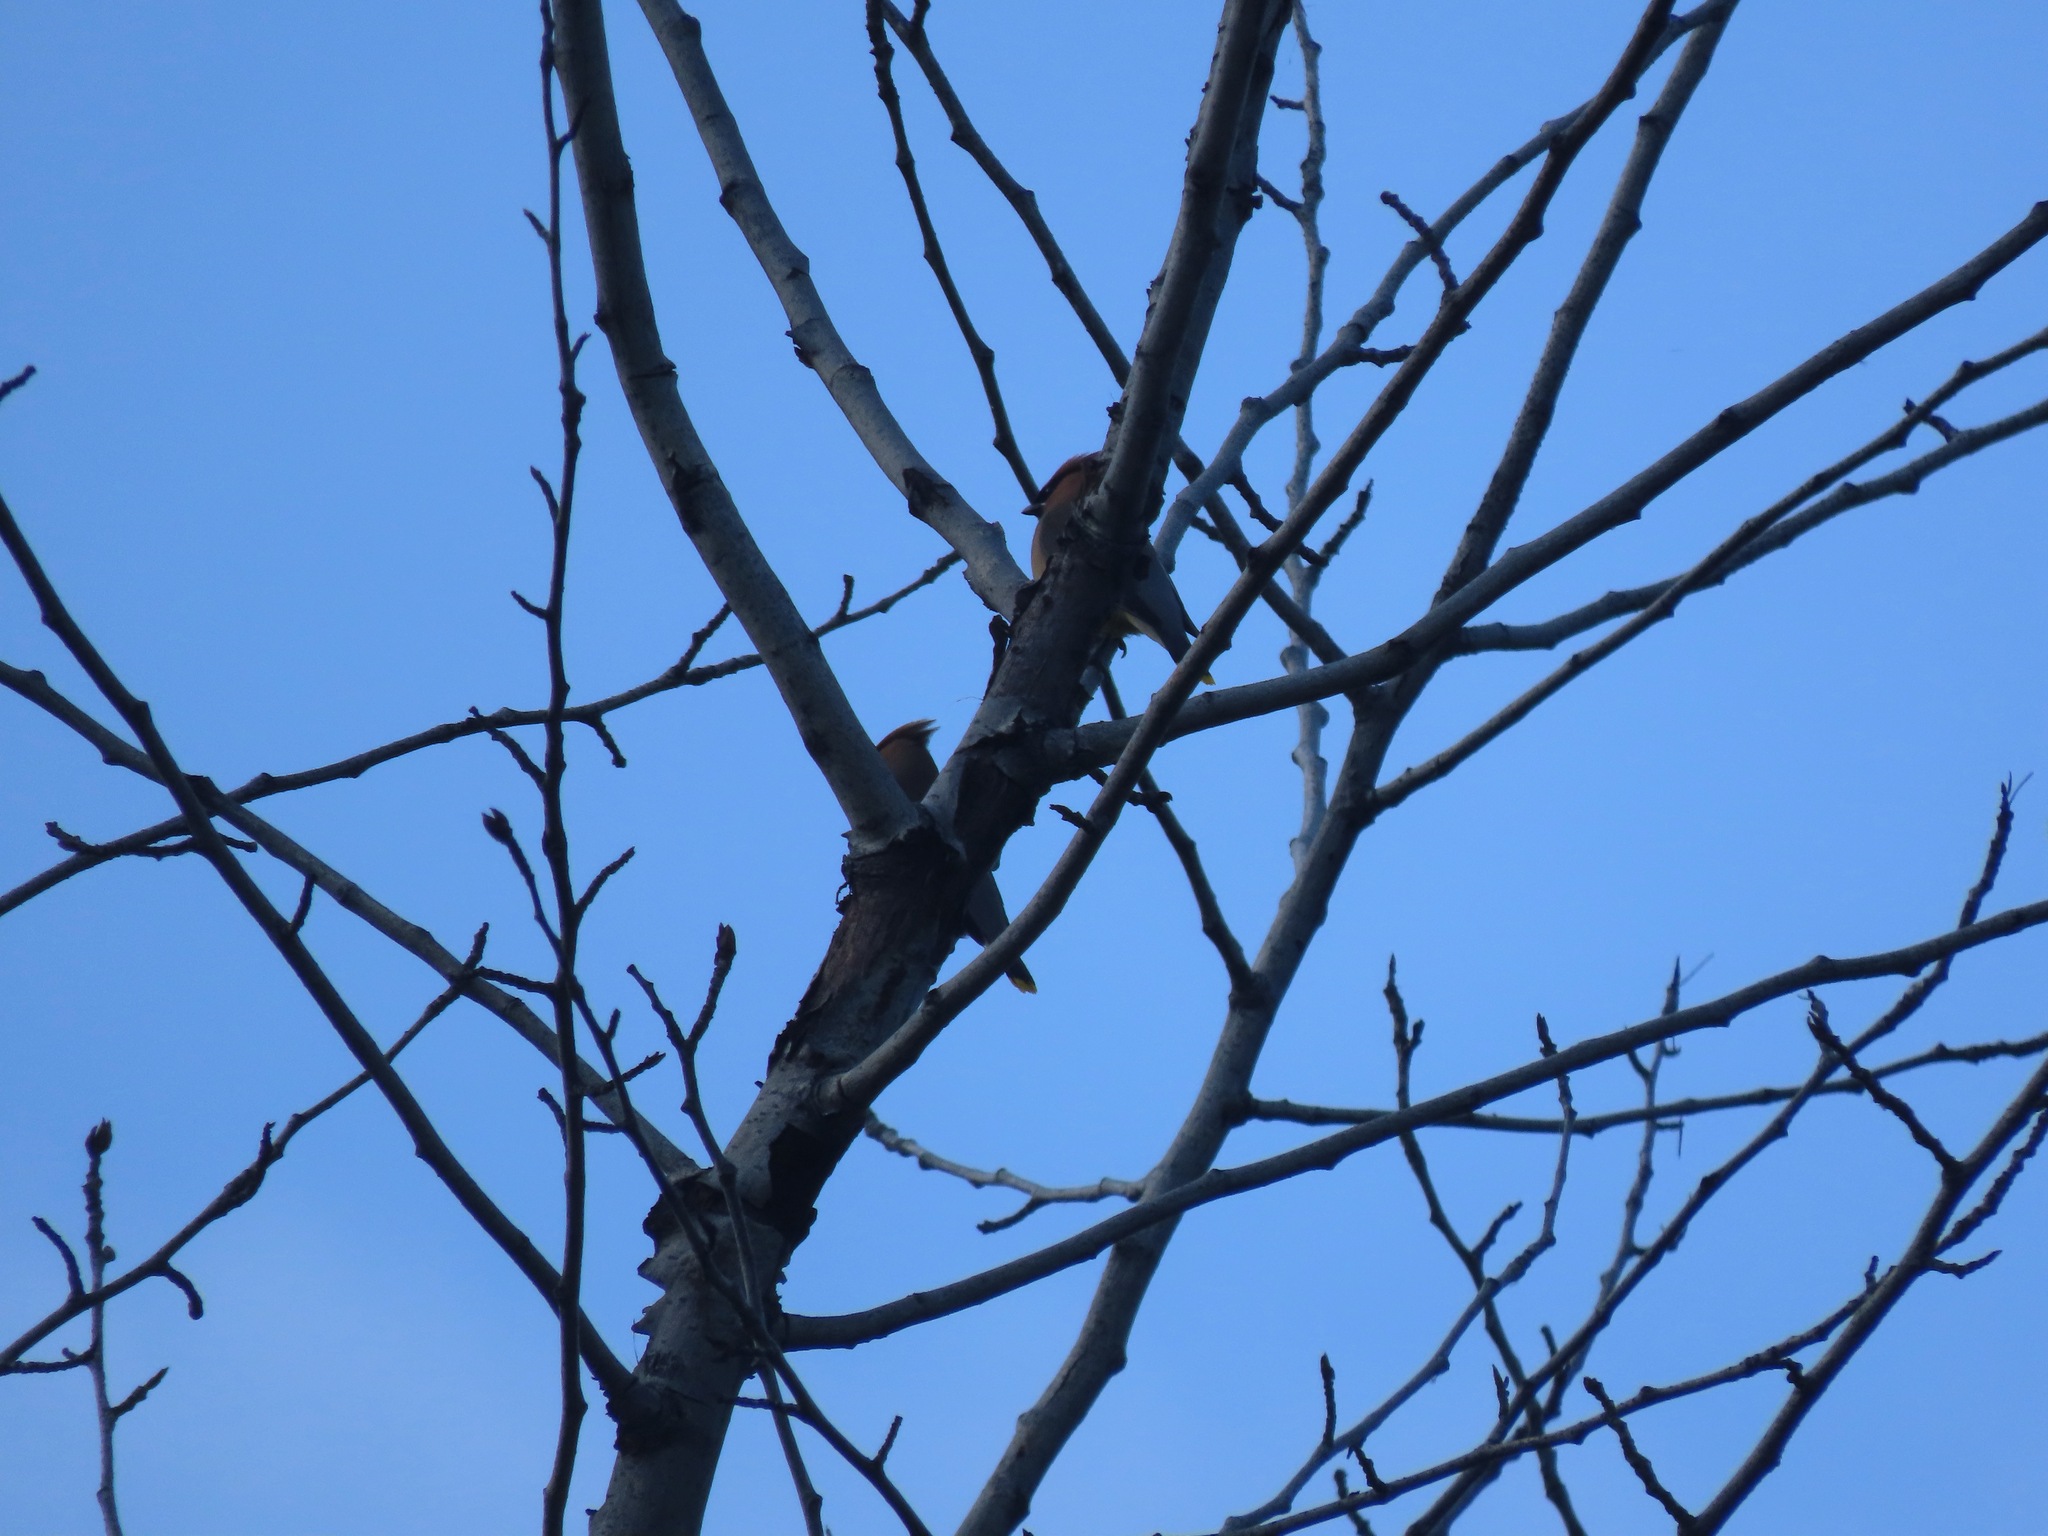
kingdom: Animalia
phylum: Chordata
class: Aves
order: Passeriformes
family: Bombycillidae
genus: Bombycilla
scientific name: Bombycilla cedrorum
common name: Cedar waxwing
